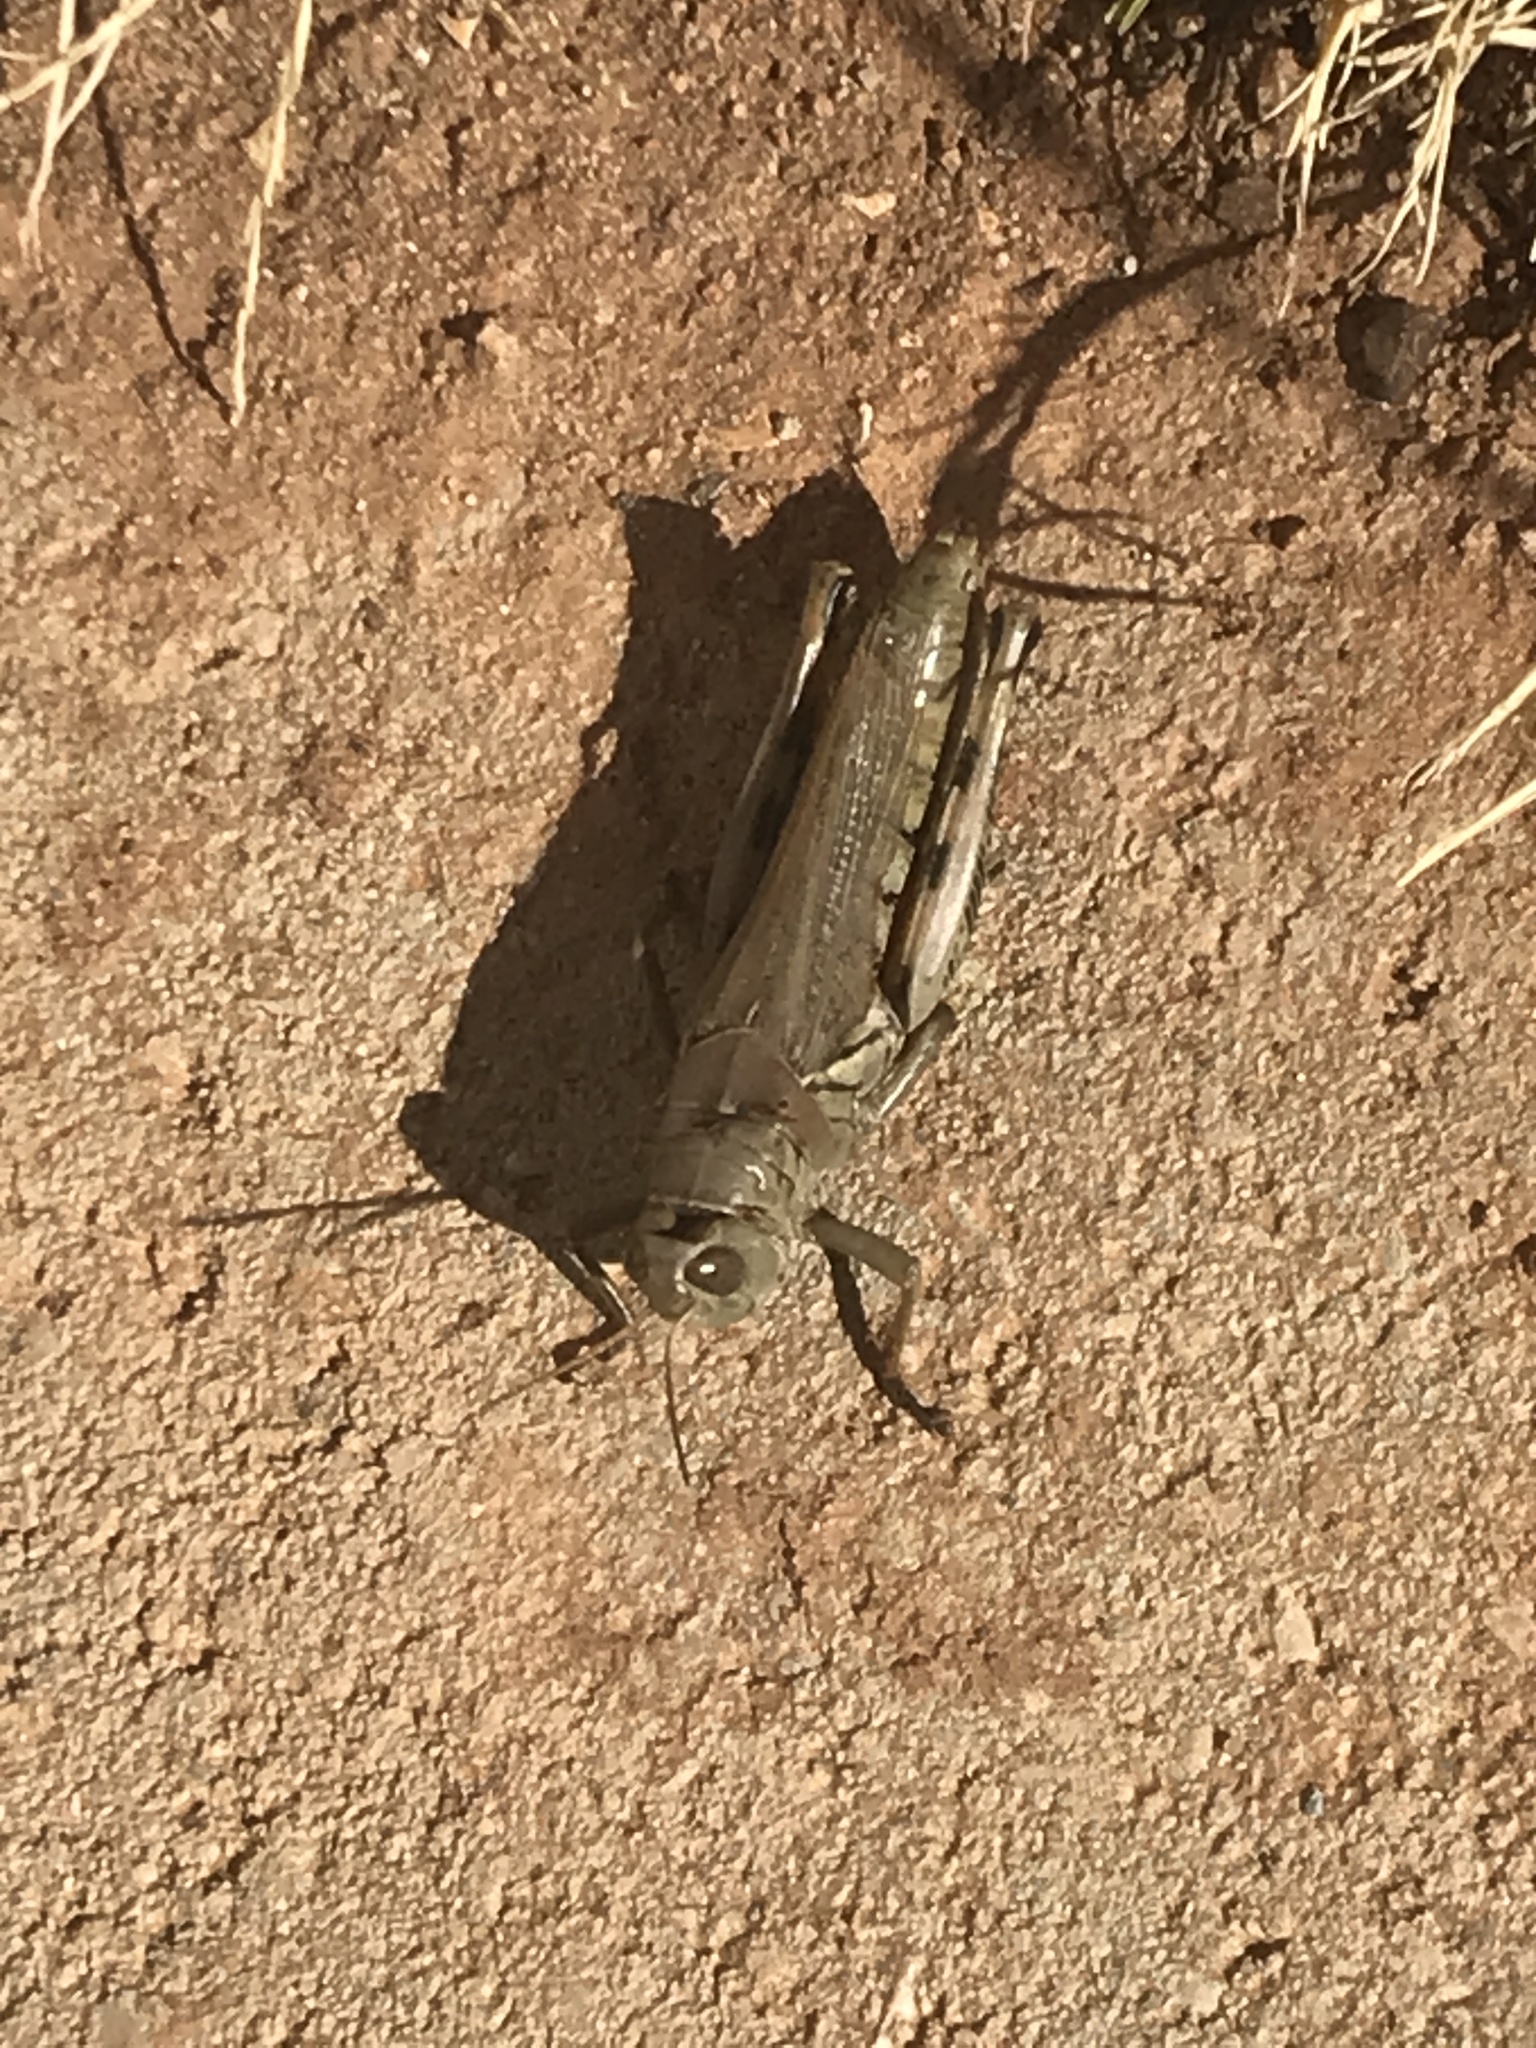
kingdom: Animalia
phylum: Arthropoda
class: Insecta
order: Orthoptera
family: Acrididae
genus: Melanoplus
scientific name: Melanoplus differentialis
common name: Differential grasshopper
